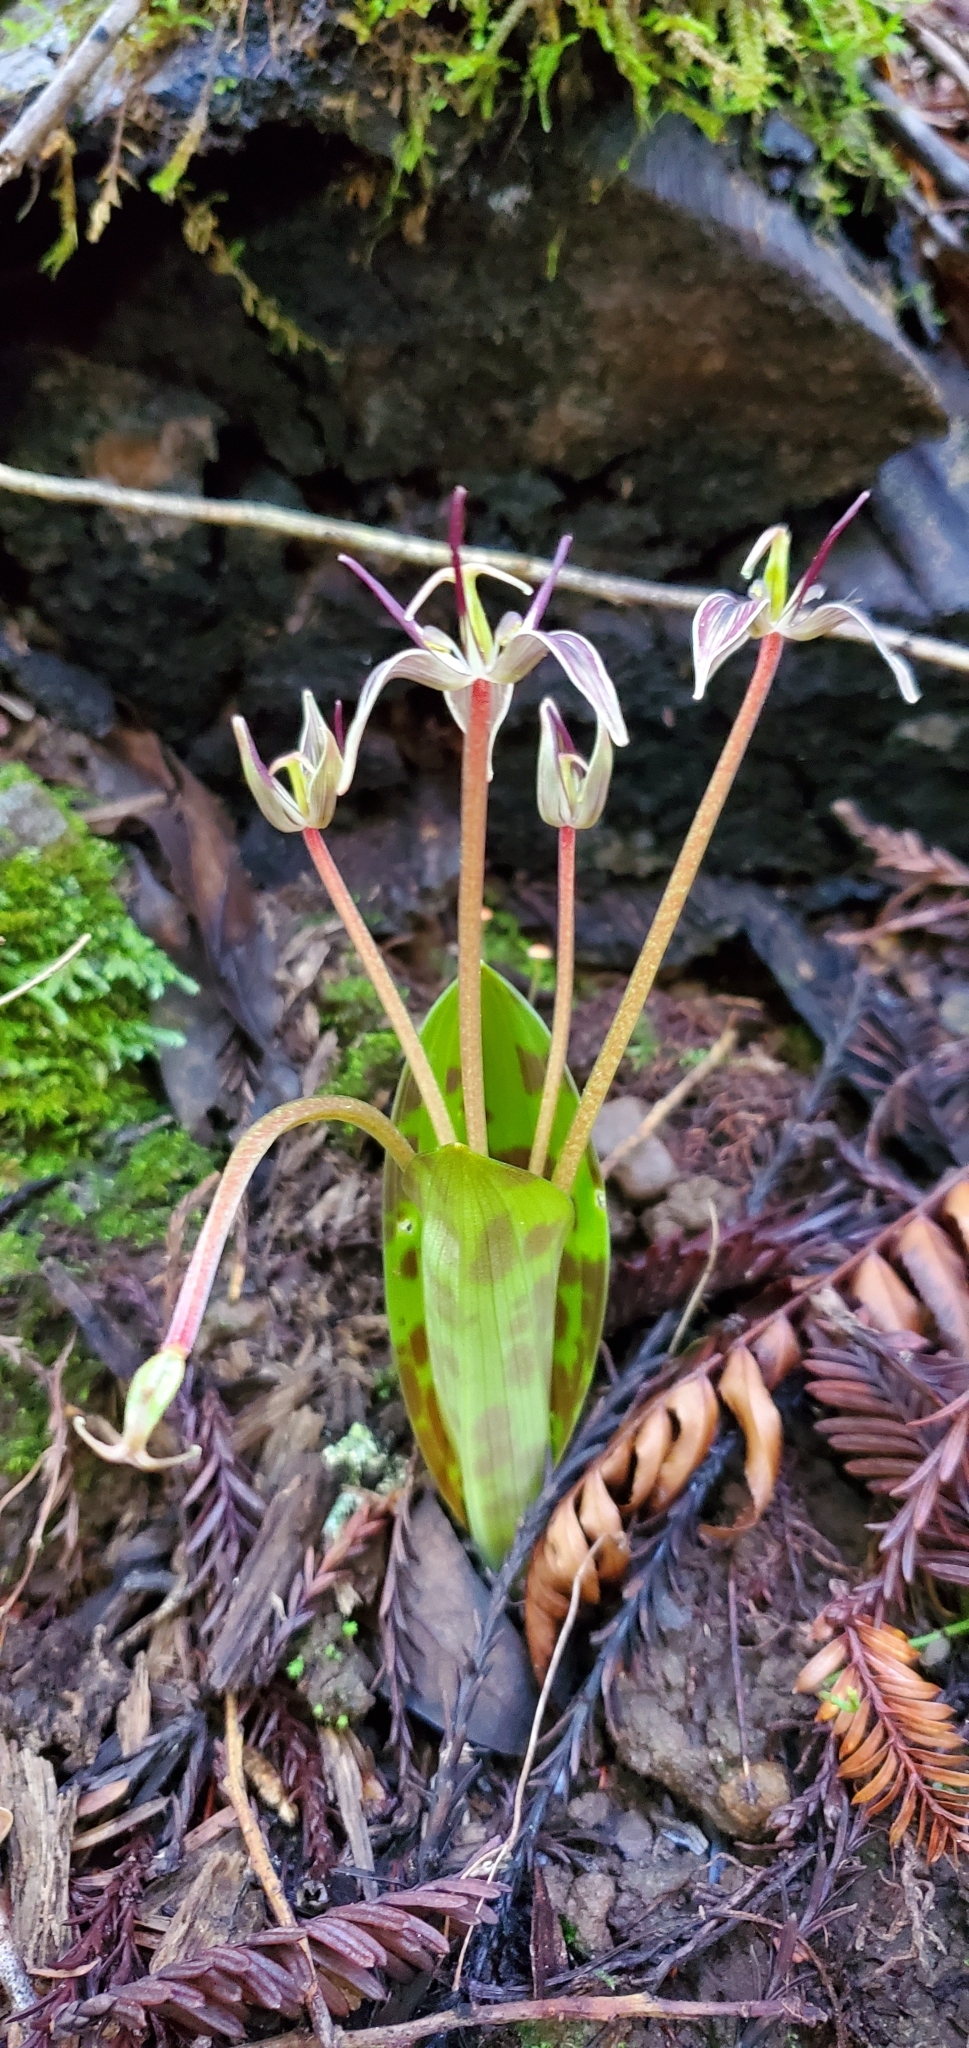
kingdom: Plantae
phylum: Tracheophyta
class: Liliopsida
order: Liliales
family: Liliaceae
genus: Scoliopus
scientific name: Scoliopus bigelovii
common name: Foetid adder's-tongue
